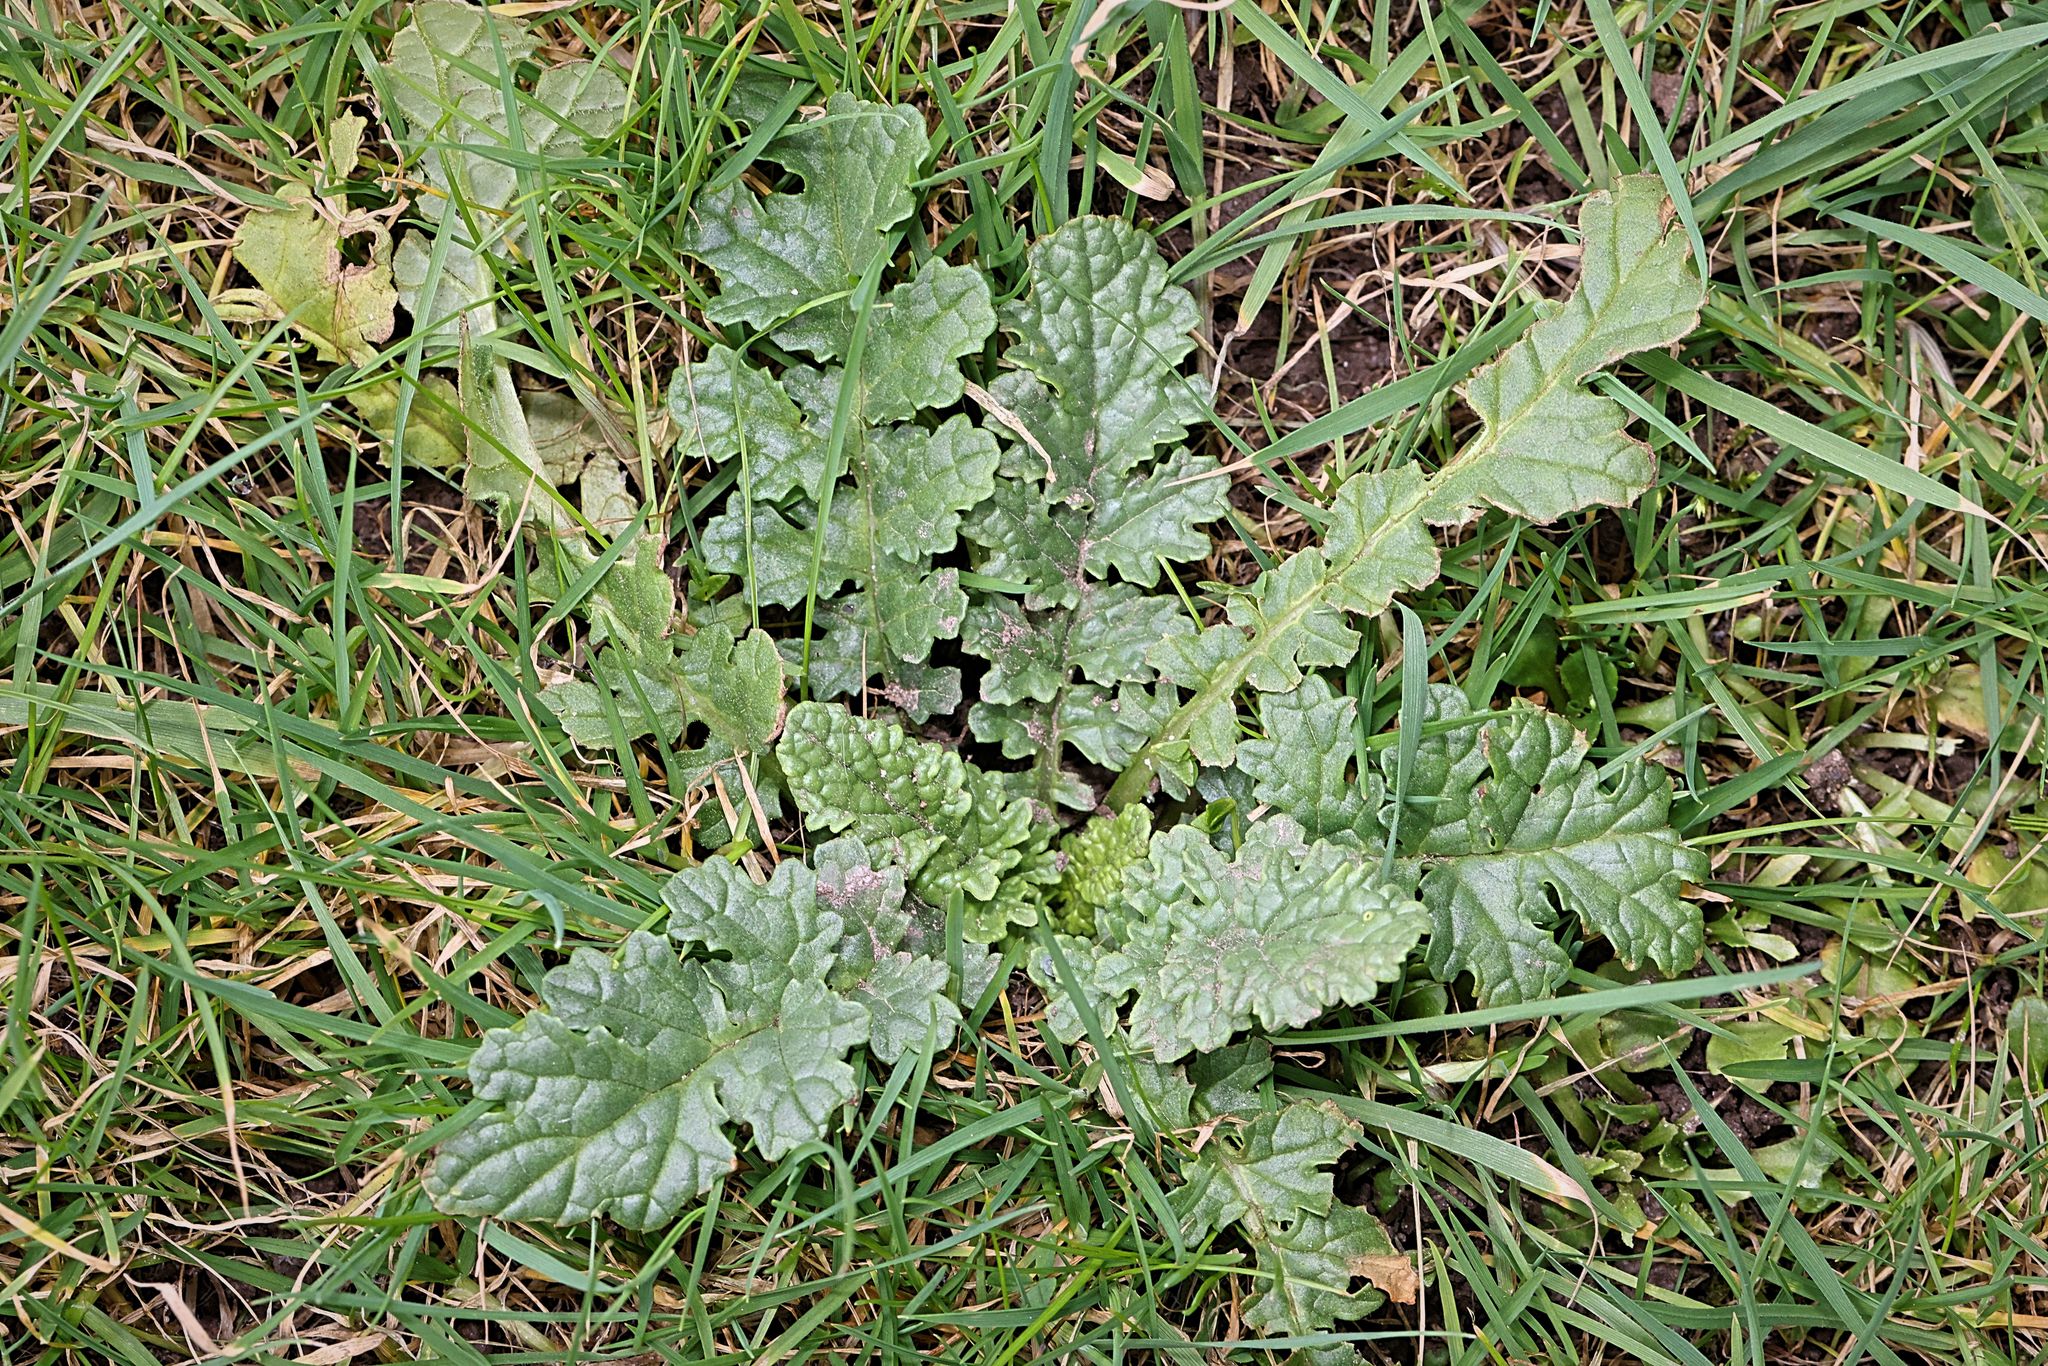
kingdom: Plantae
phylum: Tracheophyta
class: Magnoliopsida
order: Asterales
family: Asteraceae
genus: Jacobaea
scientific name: Jacobaea vulgaris
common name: Stinking willie
